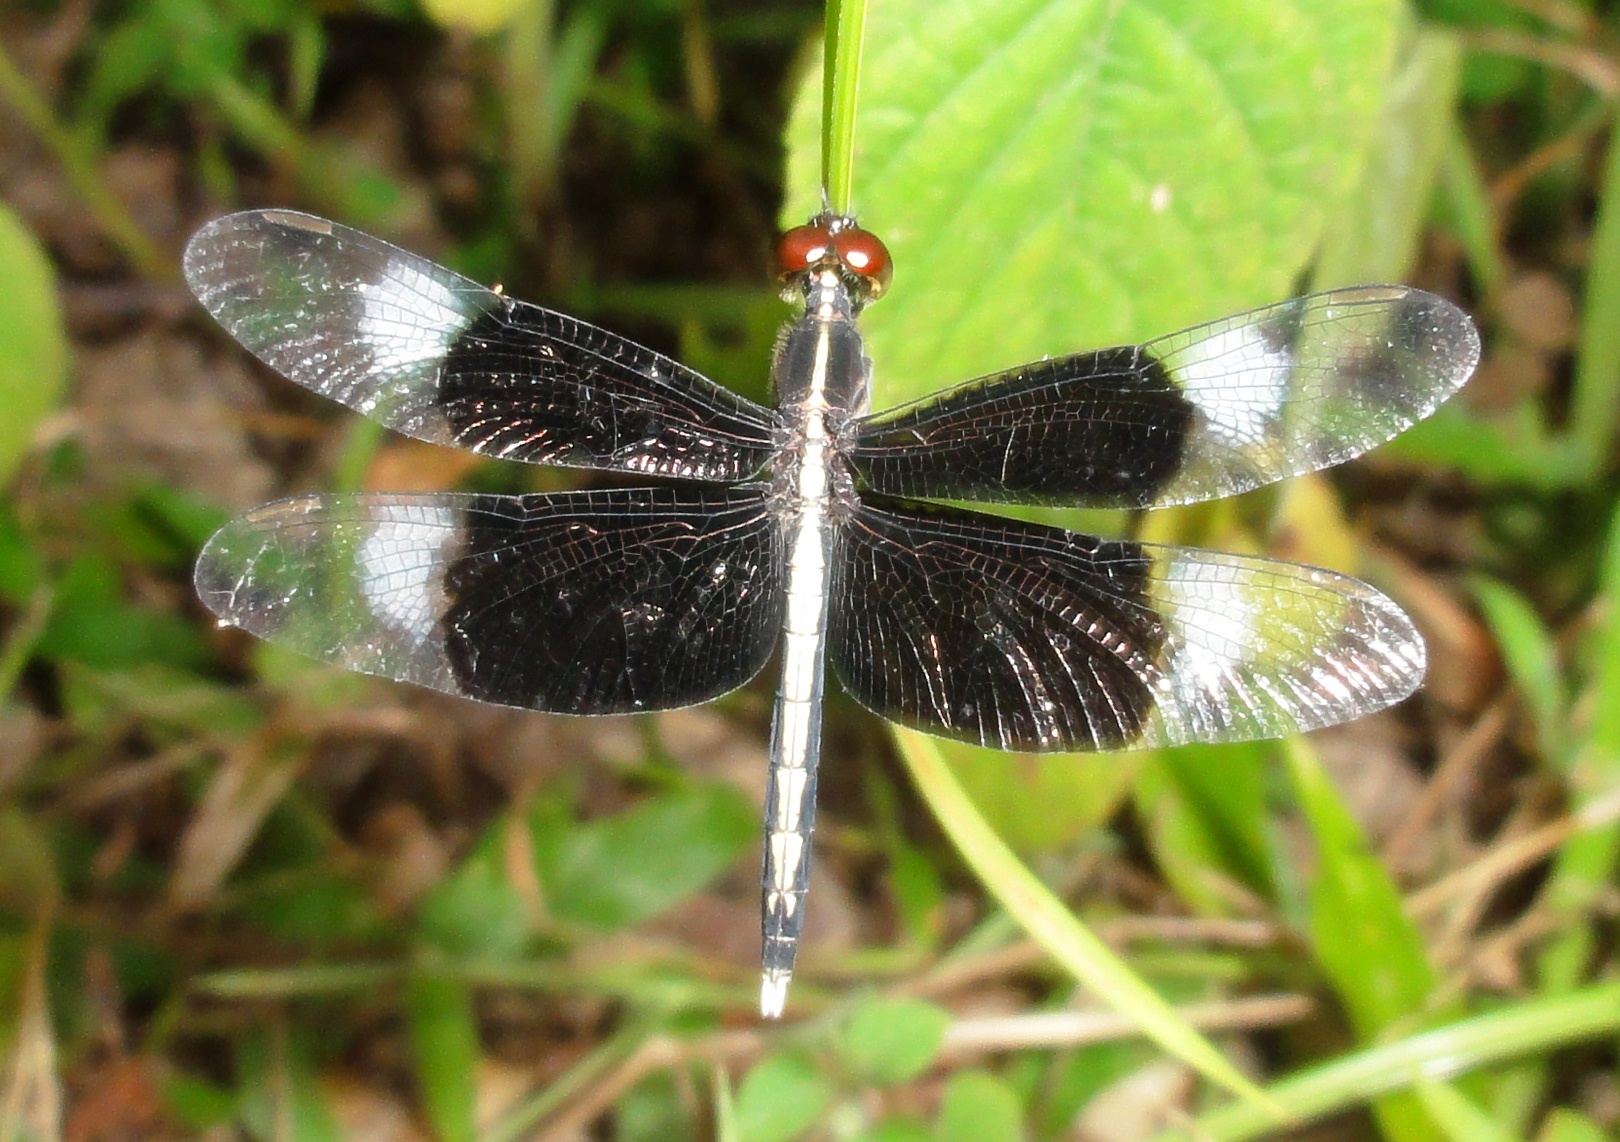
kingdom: Animalia
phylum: Arthropoda
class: Insecta
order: Odonata
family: Libellulidae
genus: Neurothemis
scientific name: Neurothemis tullia
